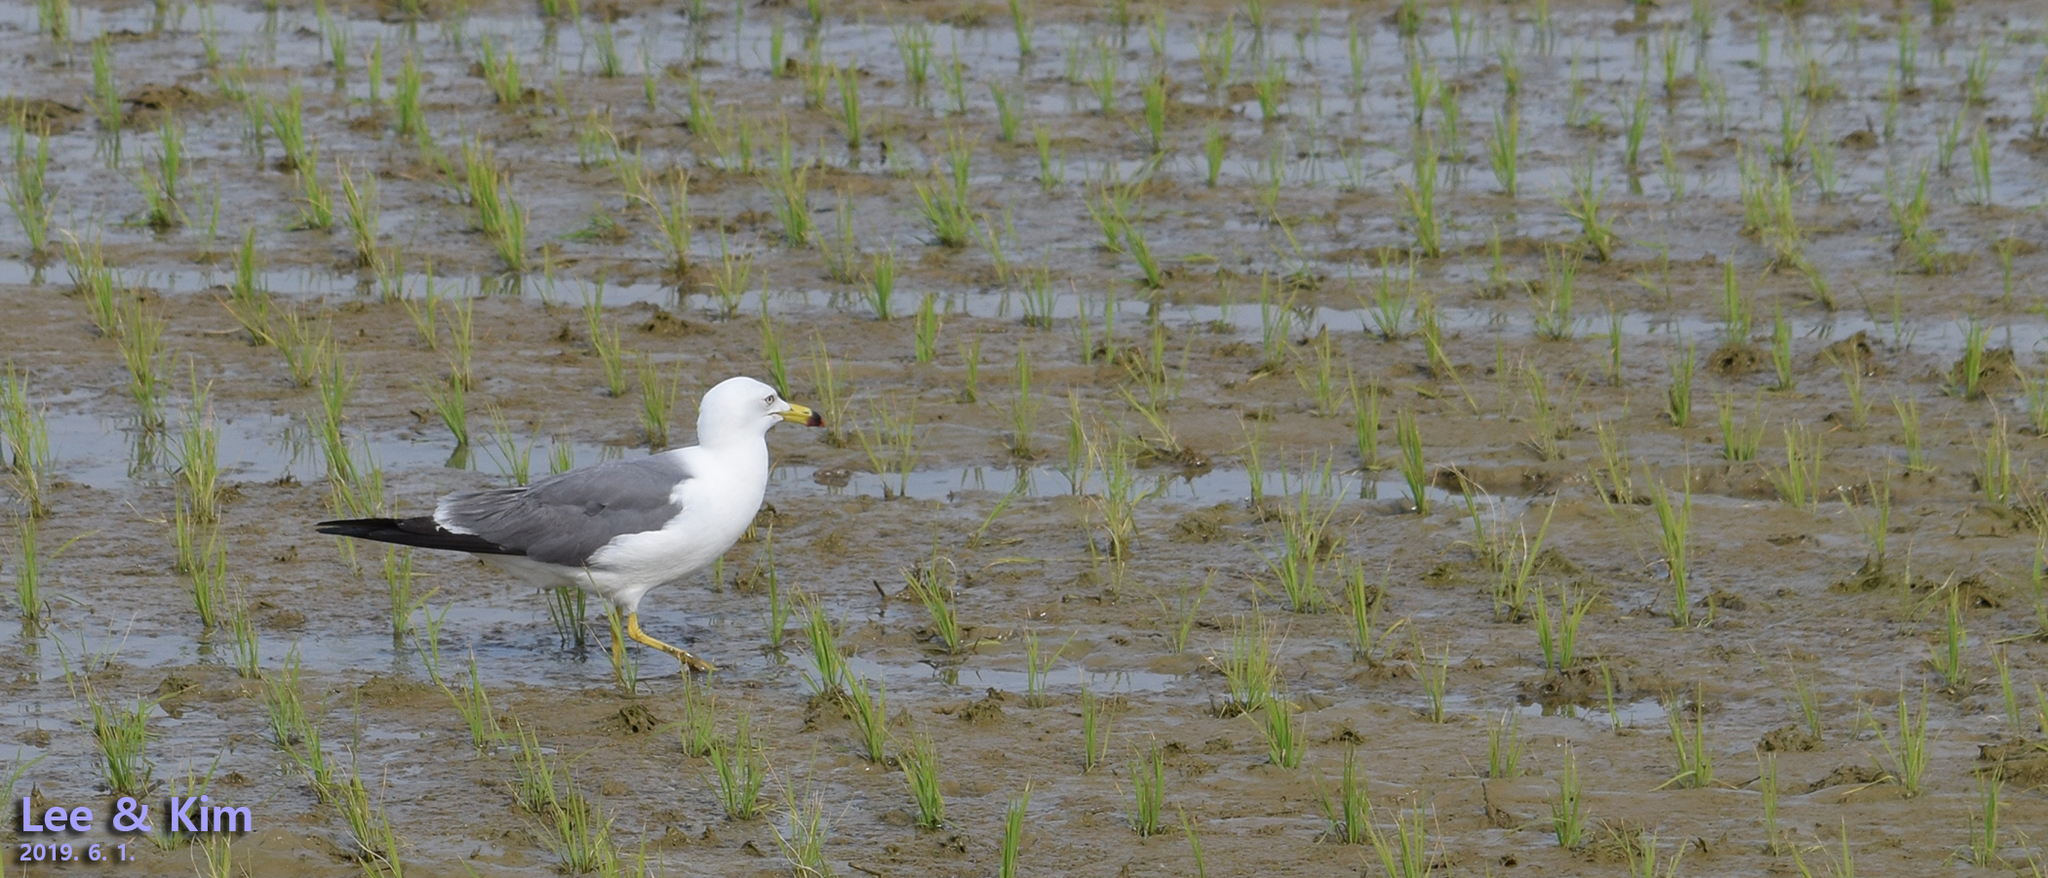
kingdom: Animalia
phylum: Chordata
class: Aves
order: Charadriiformes
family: Laridae
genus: Larus
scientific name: Larus crassirostris
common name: Black-tailed gull
